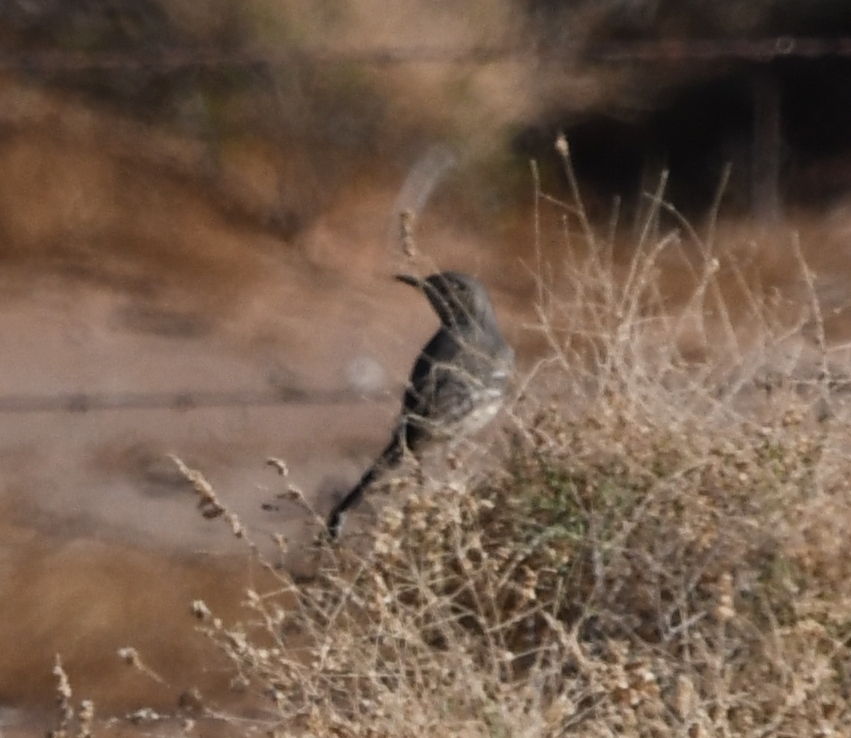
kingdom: Animalia
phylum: Chordata
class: Aves
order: Passeriformes
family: Mimidae
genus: Oreoscoptes
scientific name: Oreoscoptes montanus
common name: Sage thrasher
